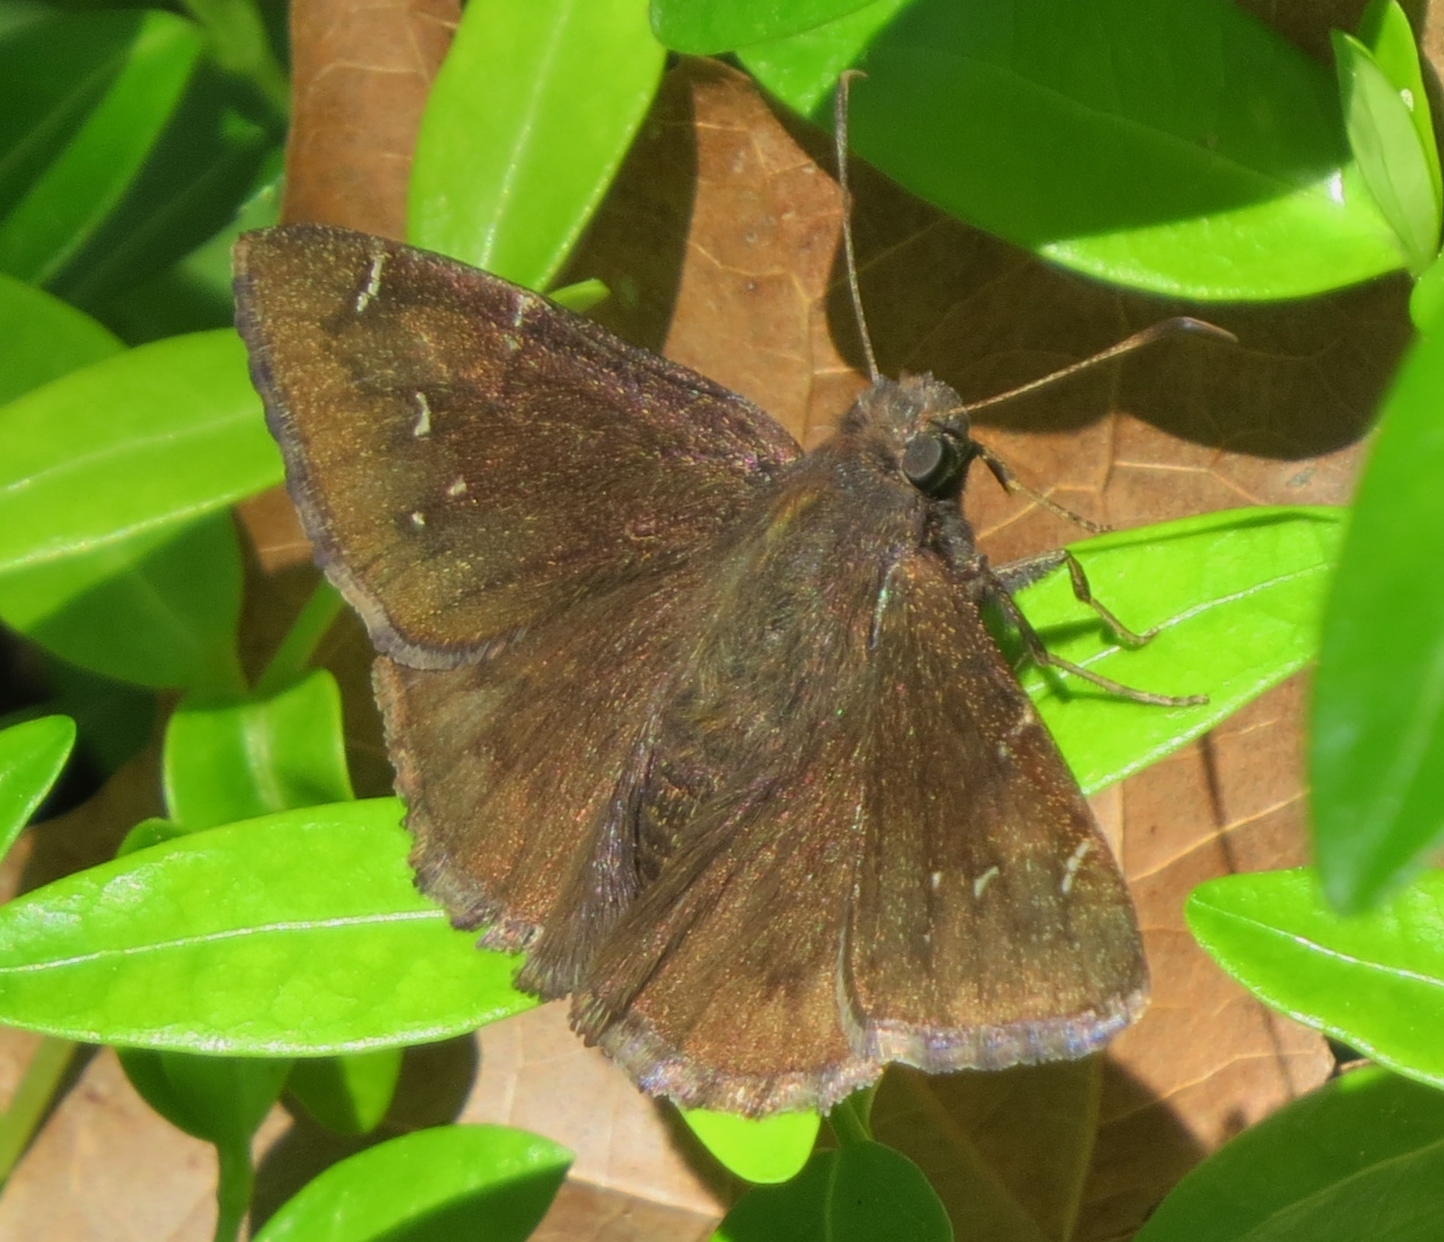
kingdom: Animalia
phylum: Arthropoda
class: Insecta
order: Lepidoptera
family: Hesperiidae
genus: Thorybes
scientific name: Thorybes pylades
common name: Northern cloudywing
